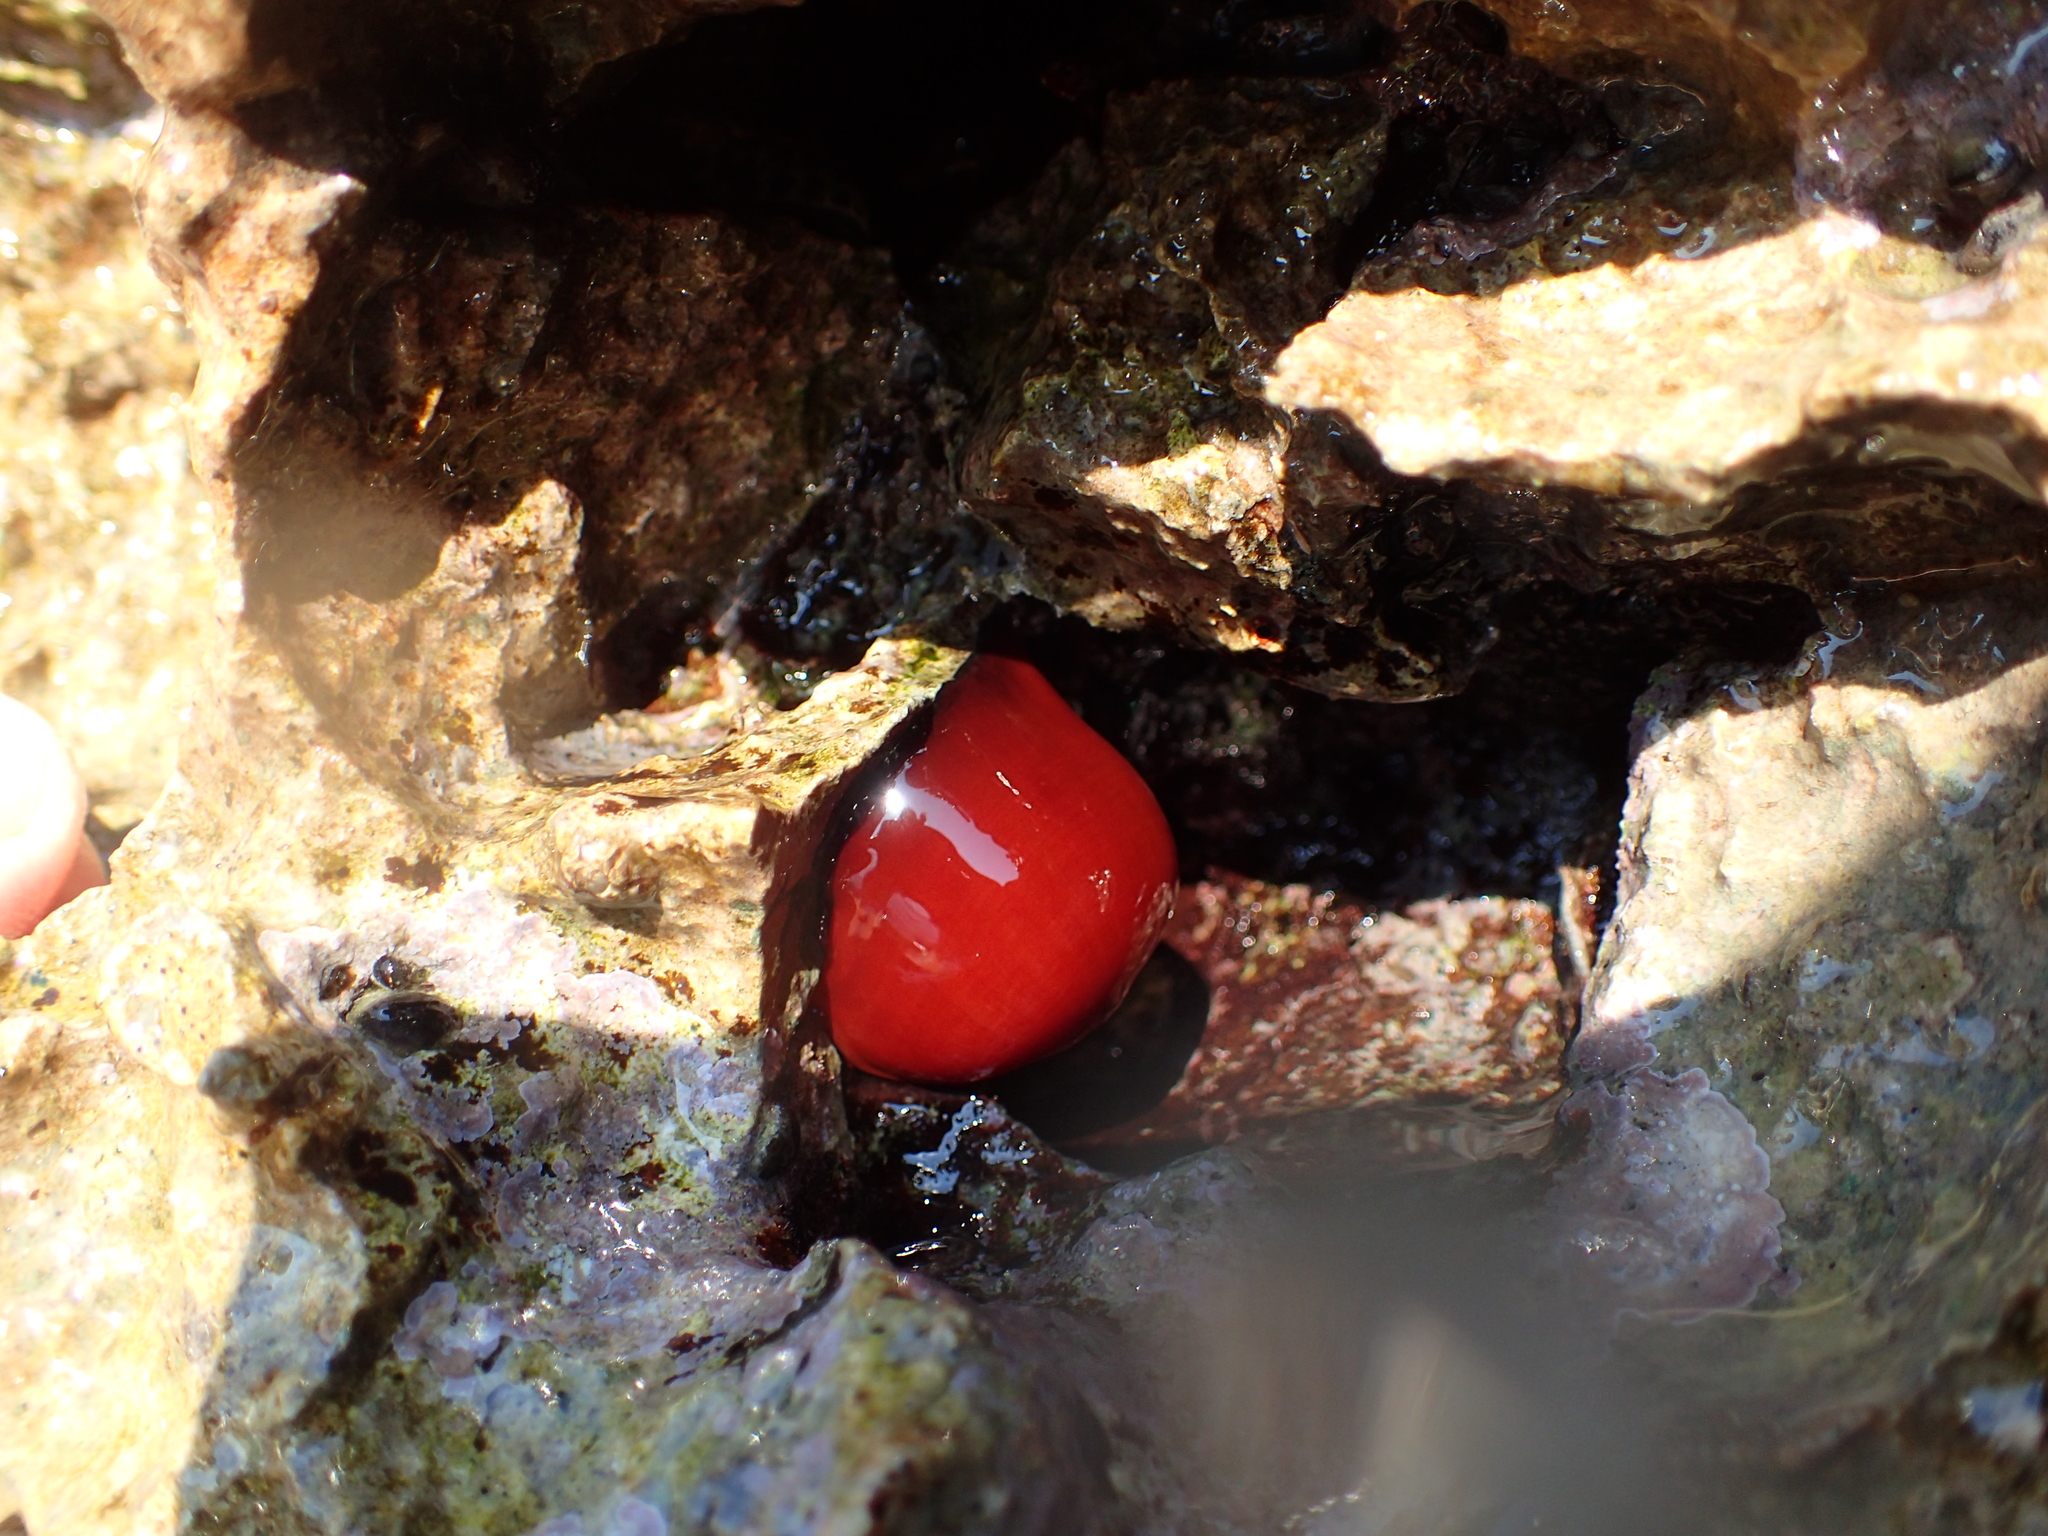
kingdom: Animalia
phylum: Cnidaria
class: Anthozoa
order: Actiniaria
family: Actiniidae
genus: Actinia
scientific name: Actinia mediterranea
